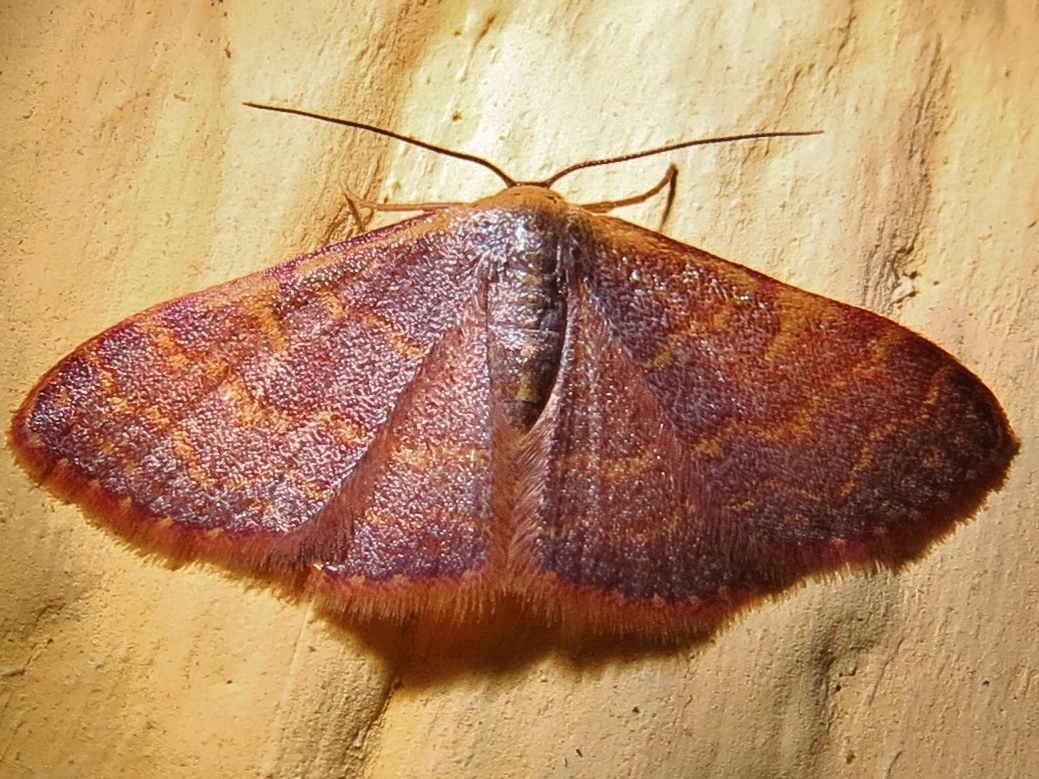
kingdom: Animalia
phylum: Arthropoda
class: Insecta
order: Lepidoptera
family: Geometridae
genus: Leptostales
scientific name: Leptostales pannaria
